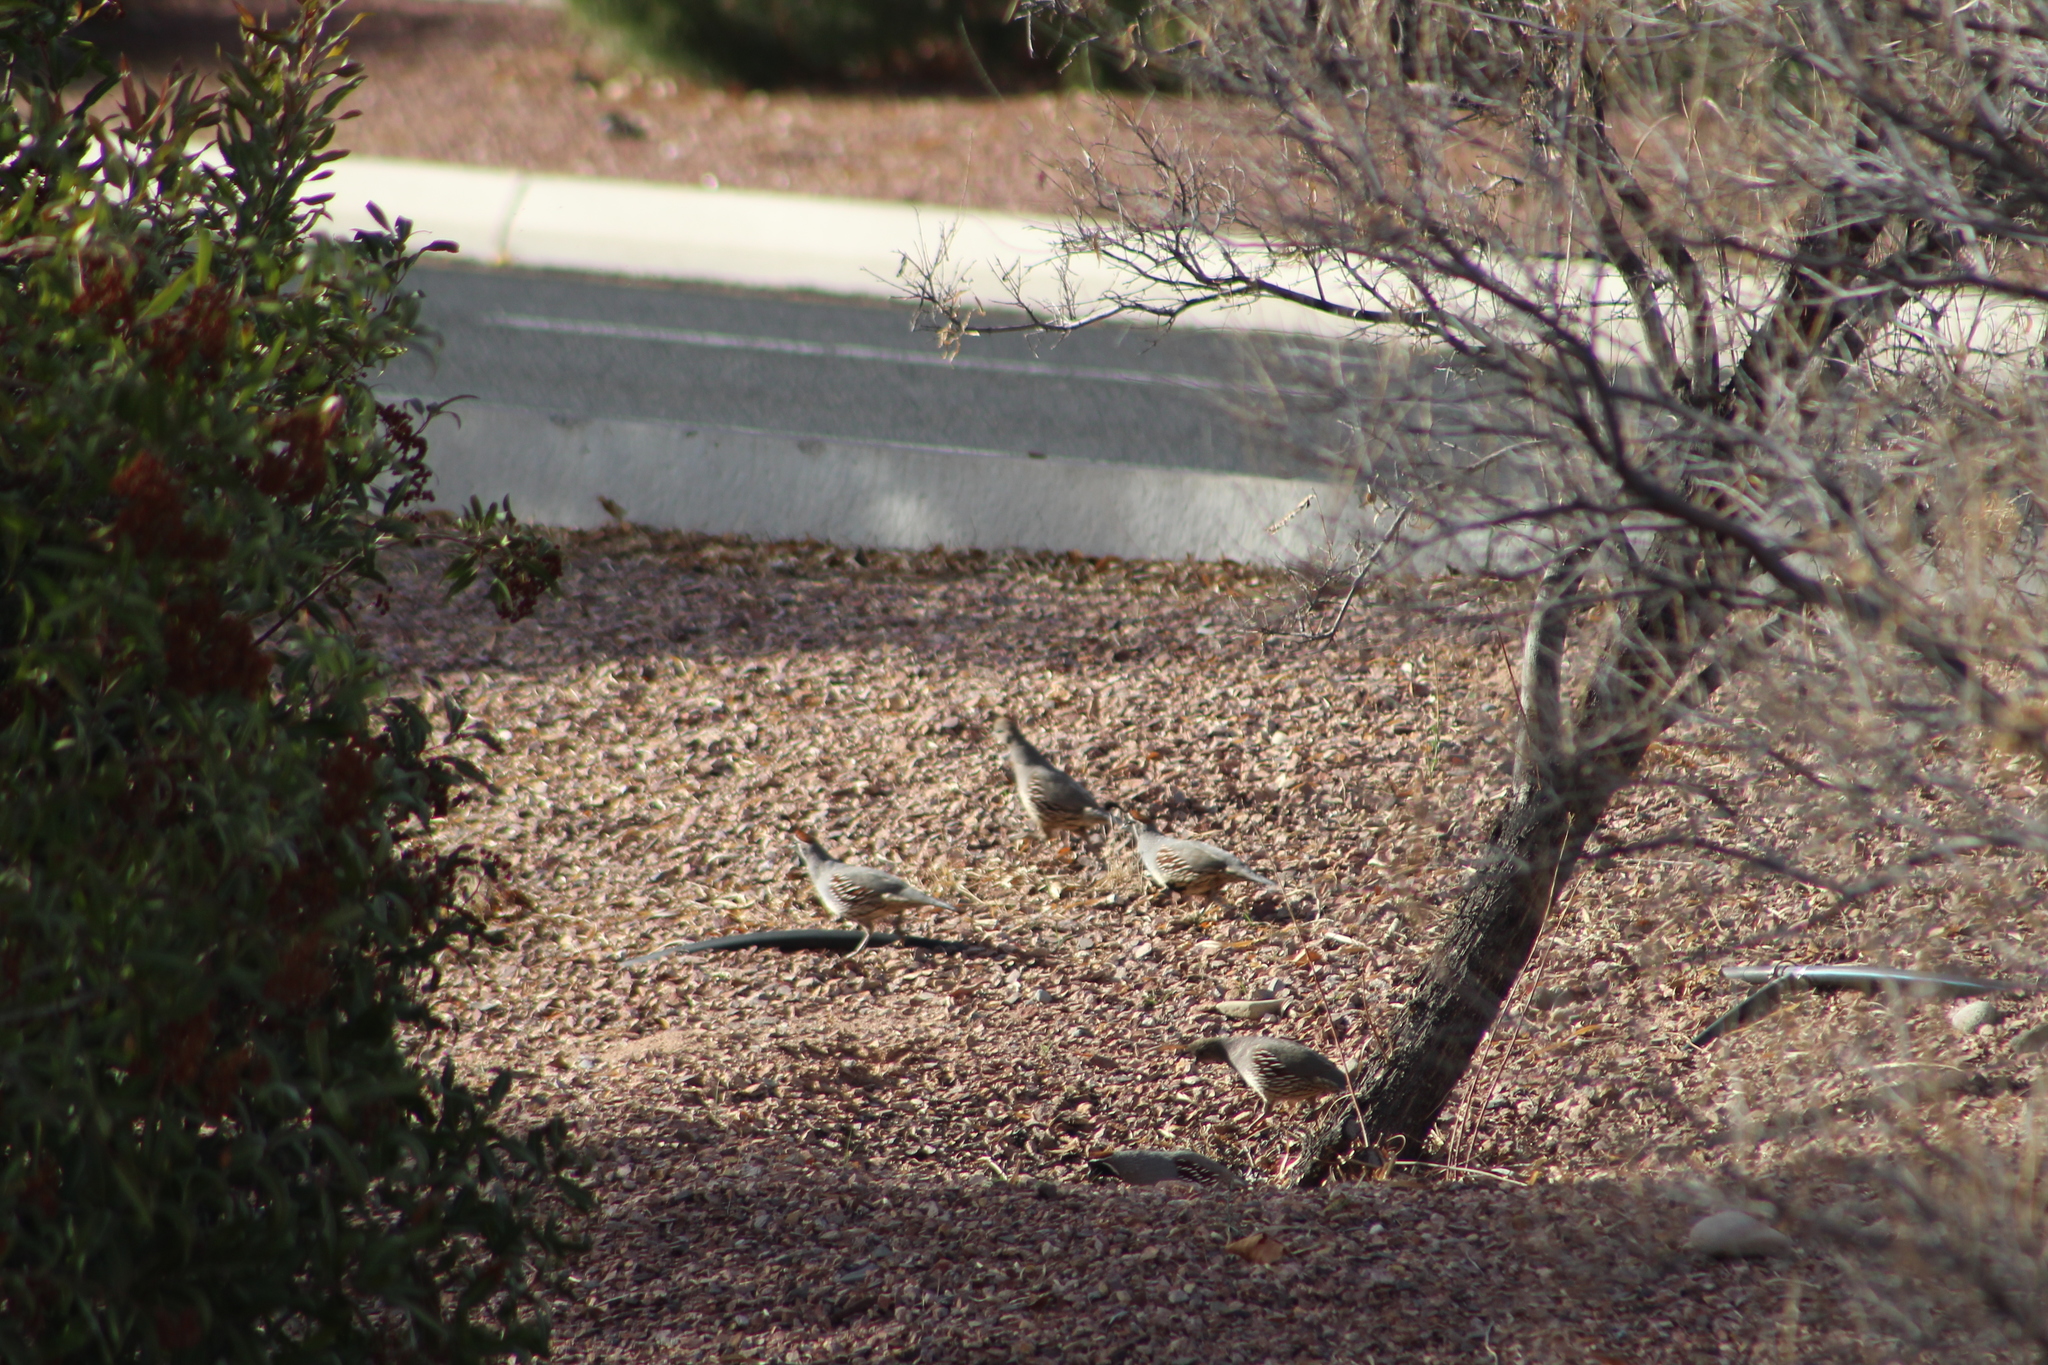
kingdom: Animalia
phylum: Chordata
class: Aves
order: Galliformes
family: Odontophoridae
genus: Callipepla
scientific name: Callipepla gambelii
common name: Gambel's quail
